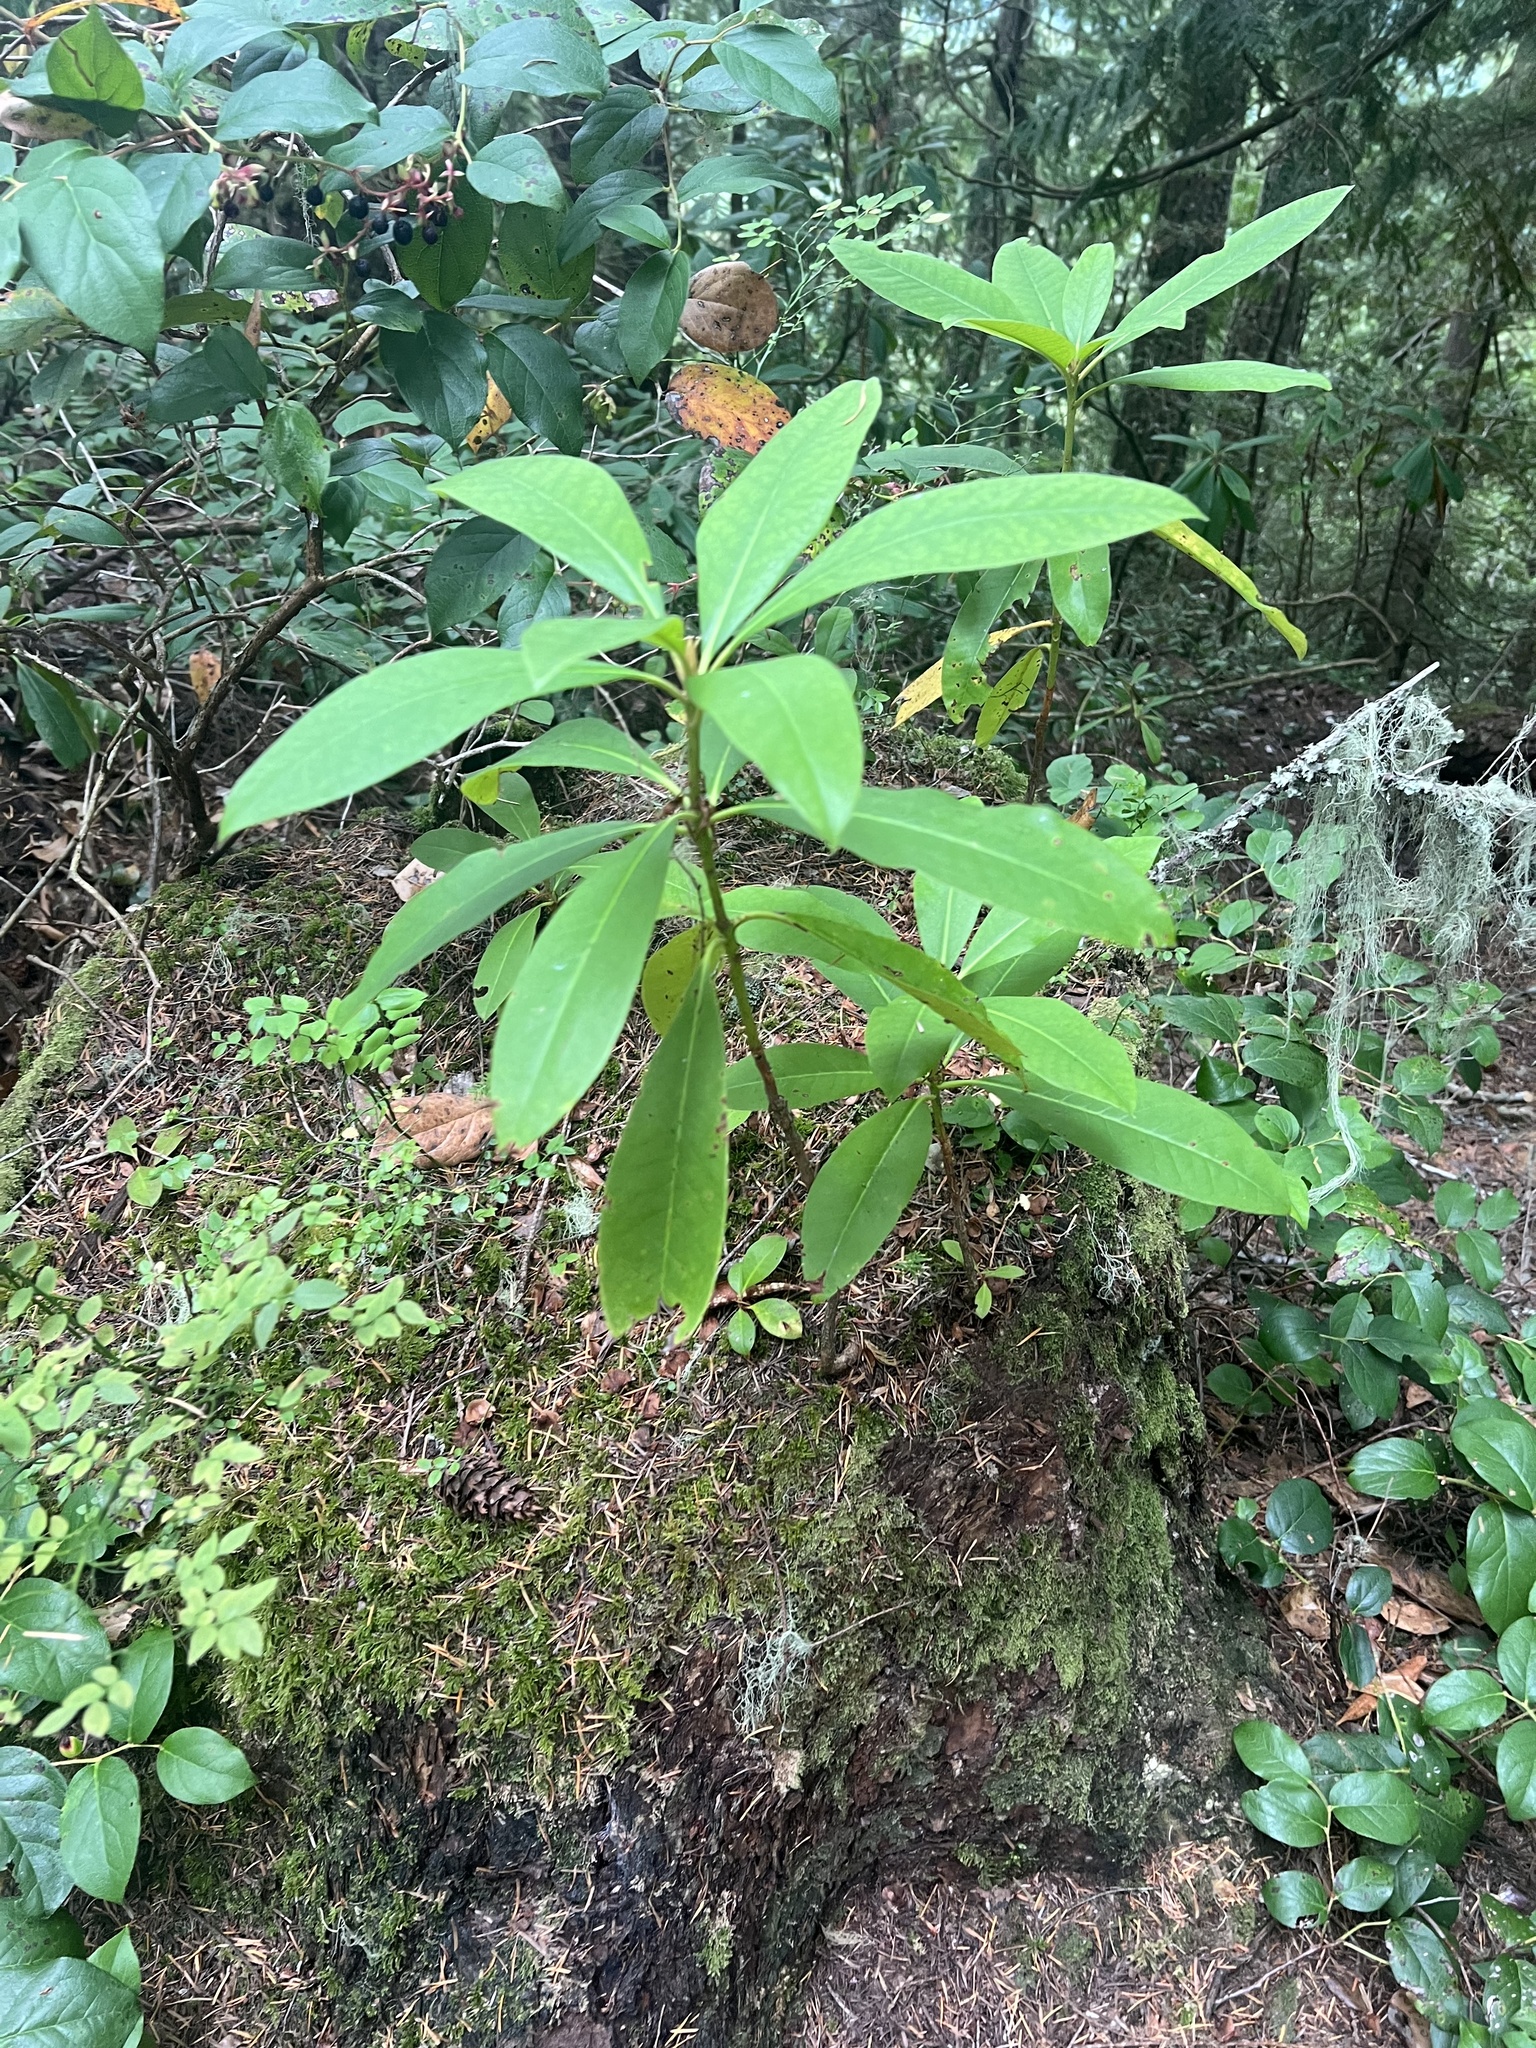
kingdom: Plantae
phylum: Tracheophyta
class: Magnoliopsida
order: Ericales
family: Ericaceae
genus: Rhododendron
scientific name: Rhododendron macrophyllum
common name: California rose bay
